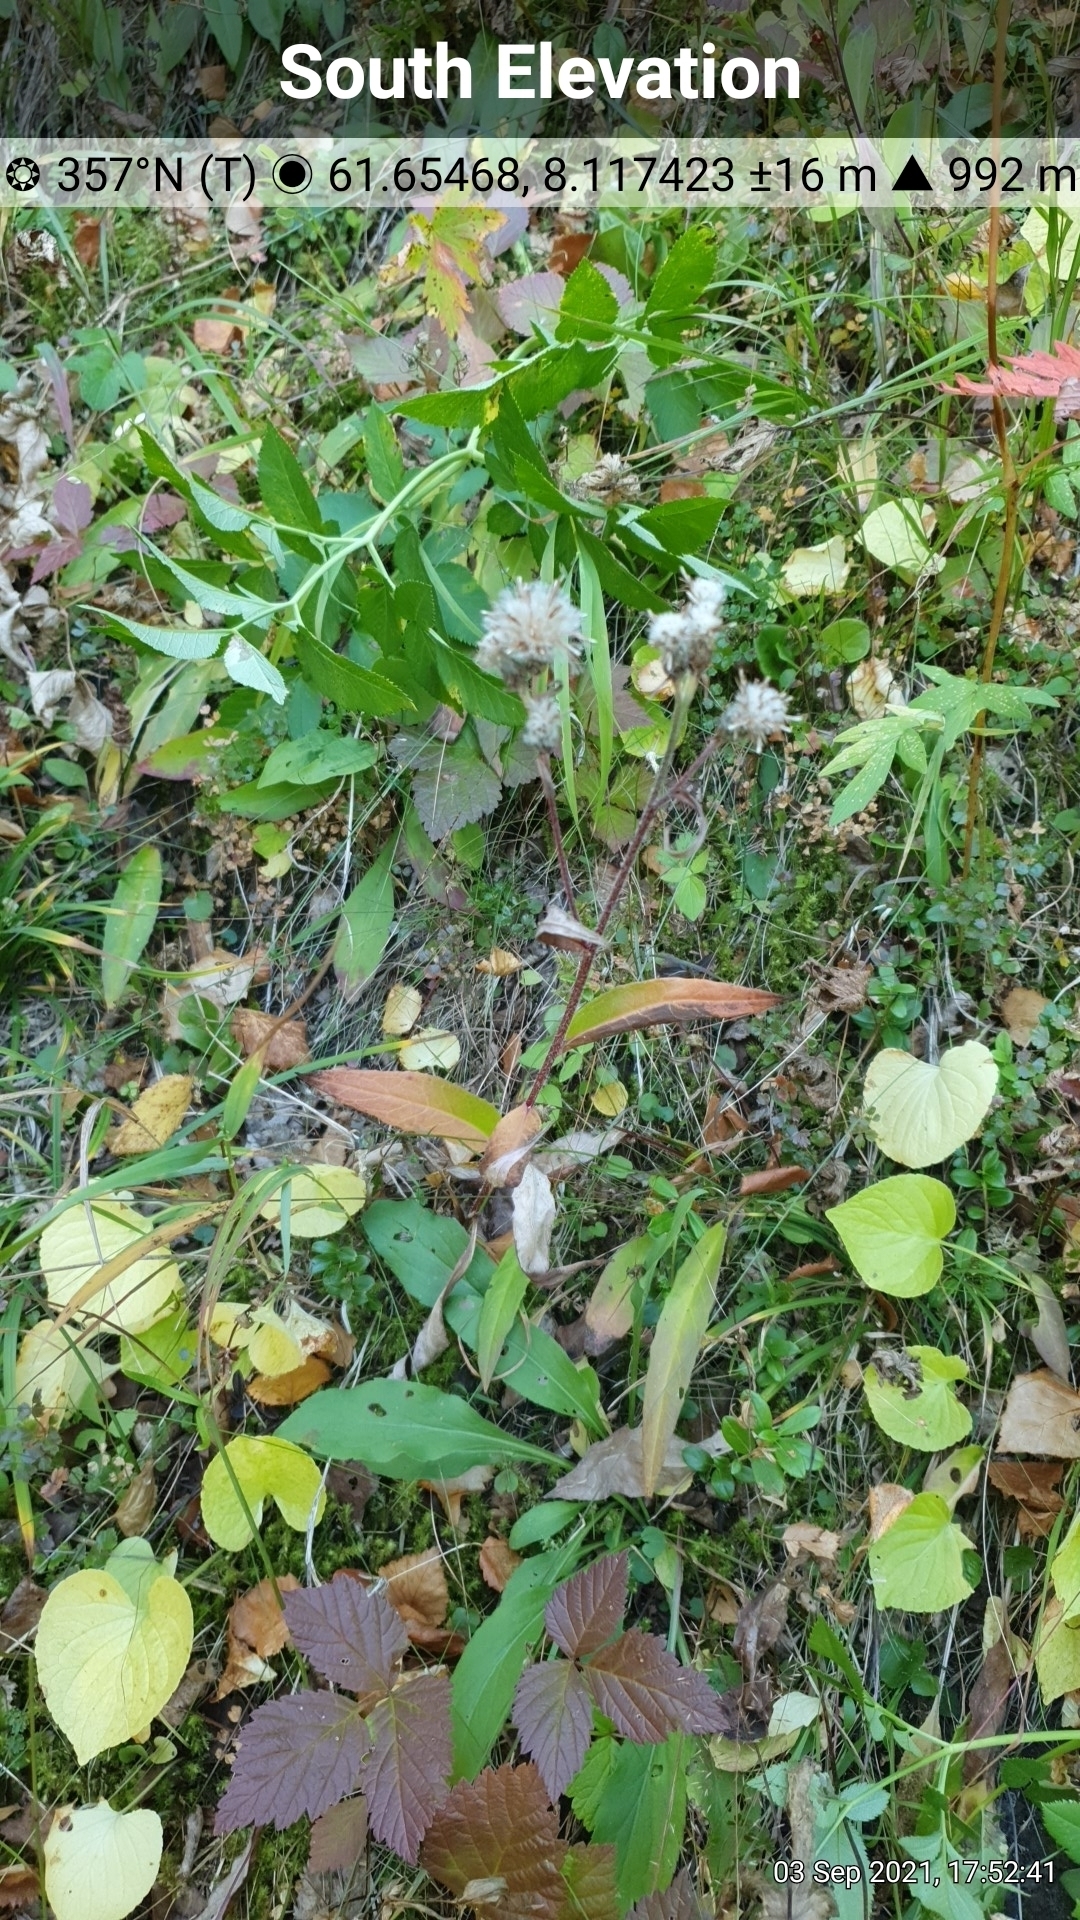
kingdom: Plantae
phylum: Tracheophyta
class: Magnoliopsida
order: Asterales
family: Asteraceae
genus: Saussurea
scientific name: Saussurea alpina
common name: Alpine saw-wort
